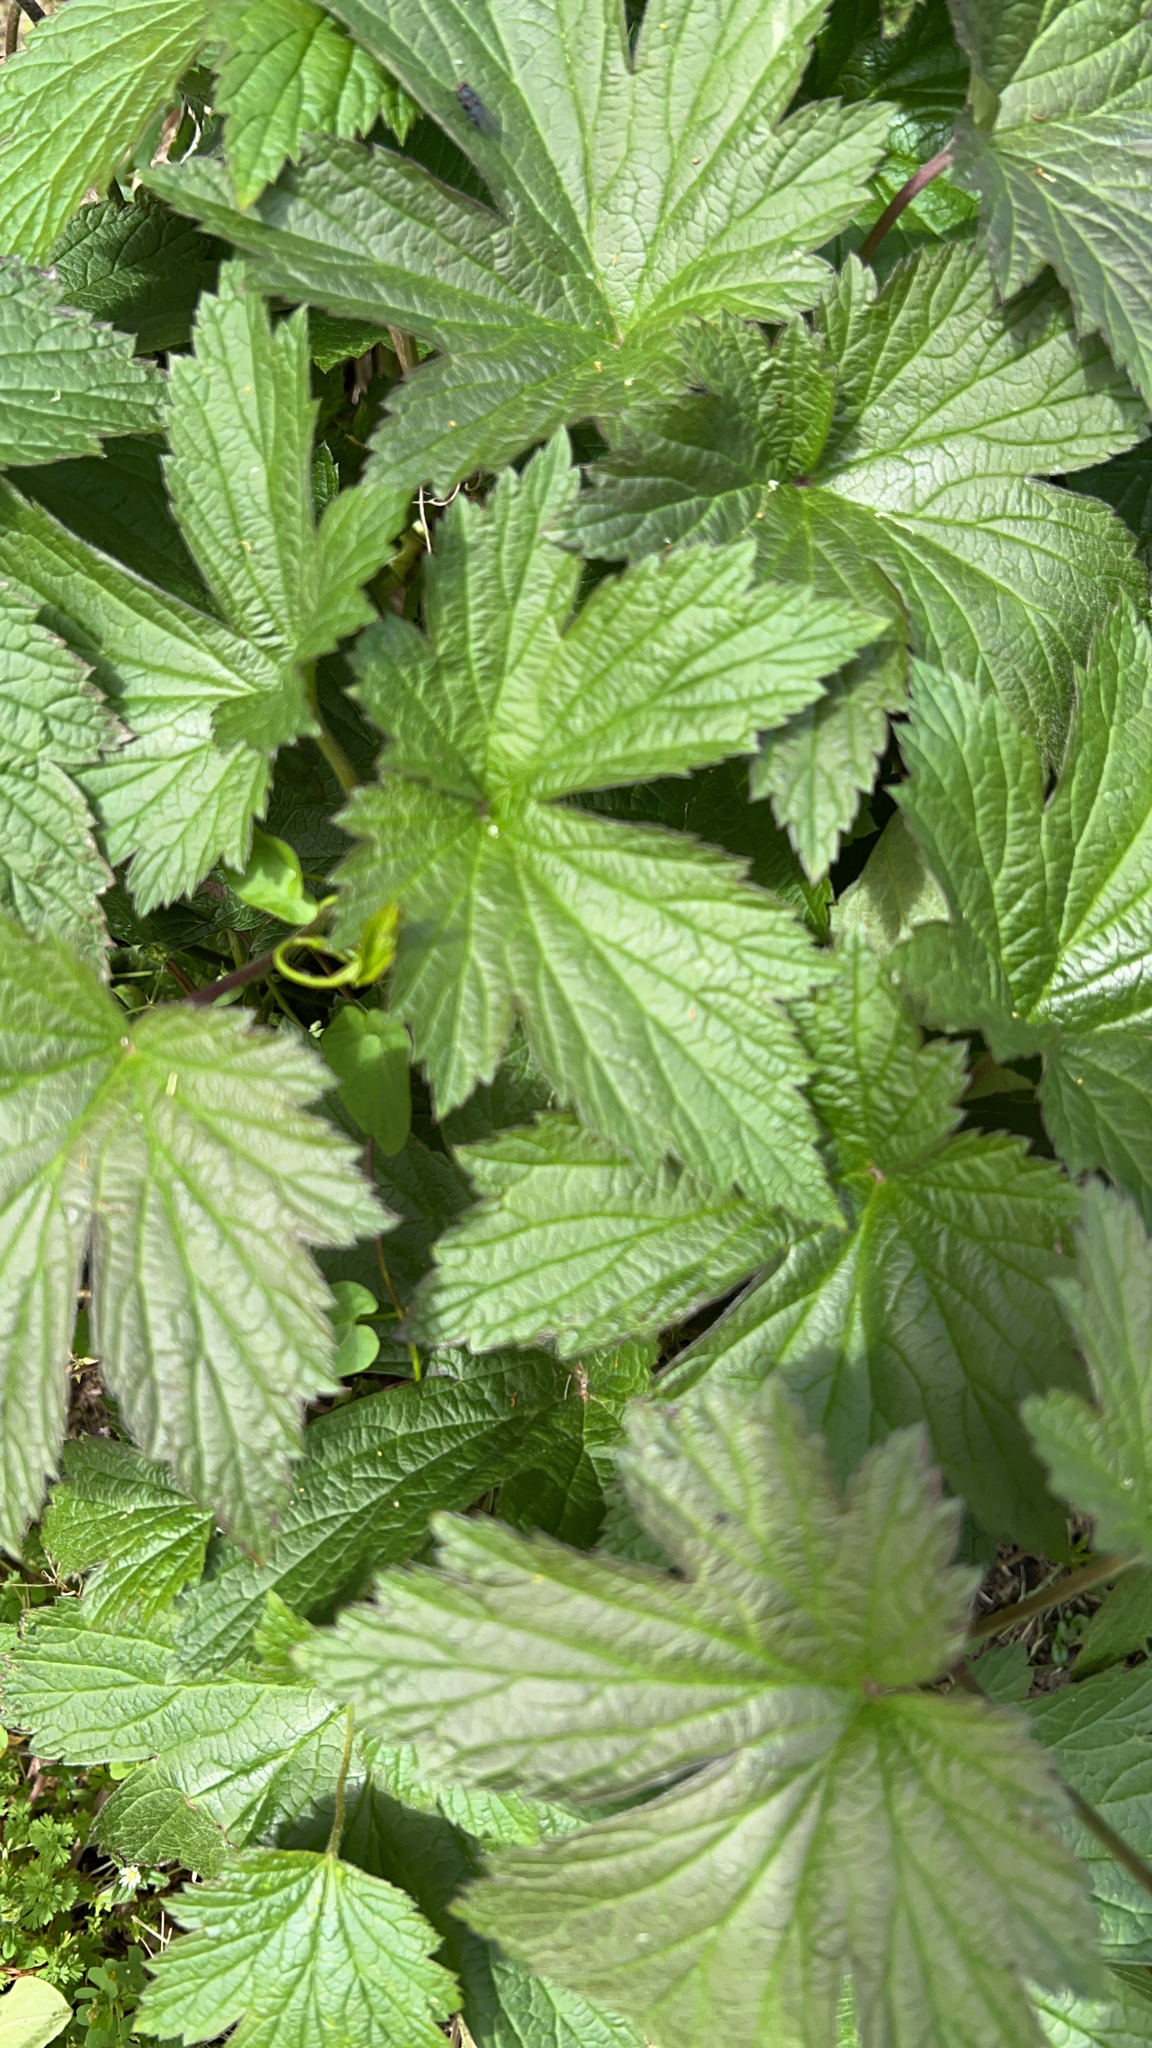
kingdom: Plantae
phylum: Tracheophyta
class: Magnoliopsida
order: Rosales
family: Cannabaceae
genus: Humulus
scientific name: Humulus lupulus
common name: Hop
